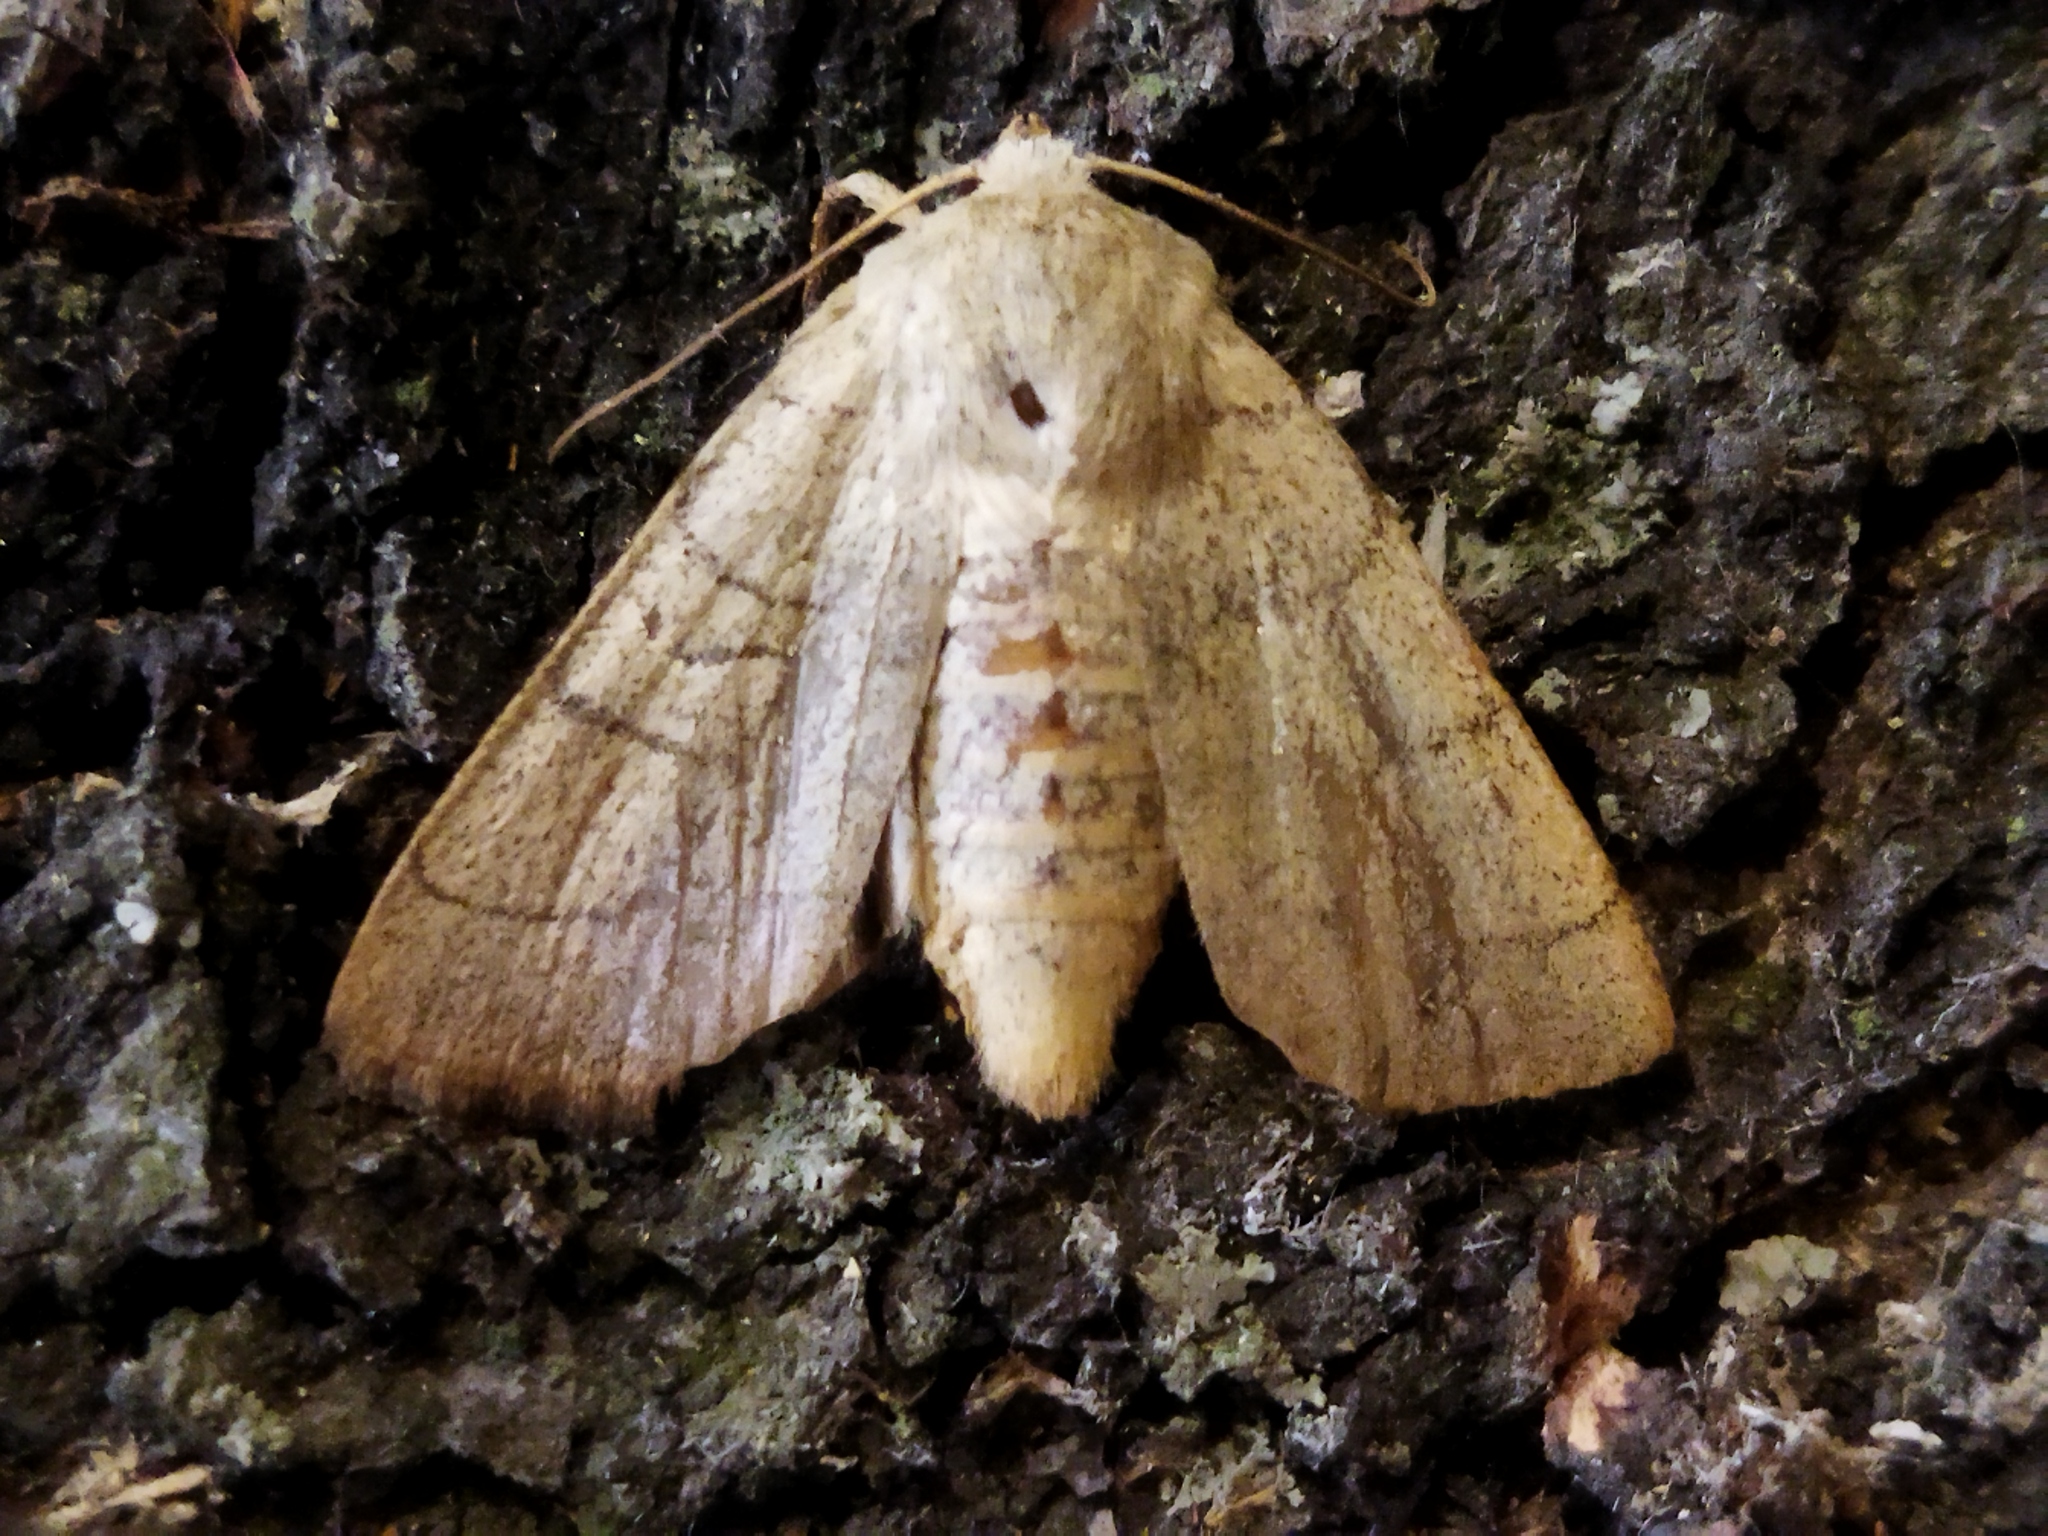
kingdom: Animalia
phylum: Arthropoda
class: Insecta
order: Lepidoptera
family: Noctuidae
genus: Charanyca
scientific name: Charanyca trigrammica
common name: Treble lines
